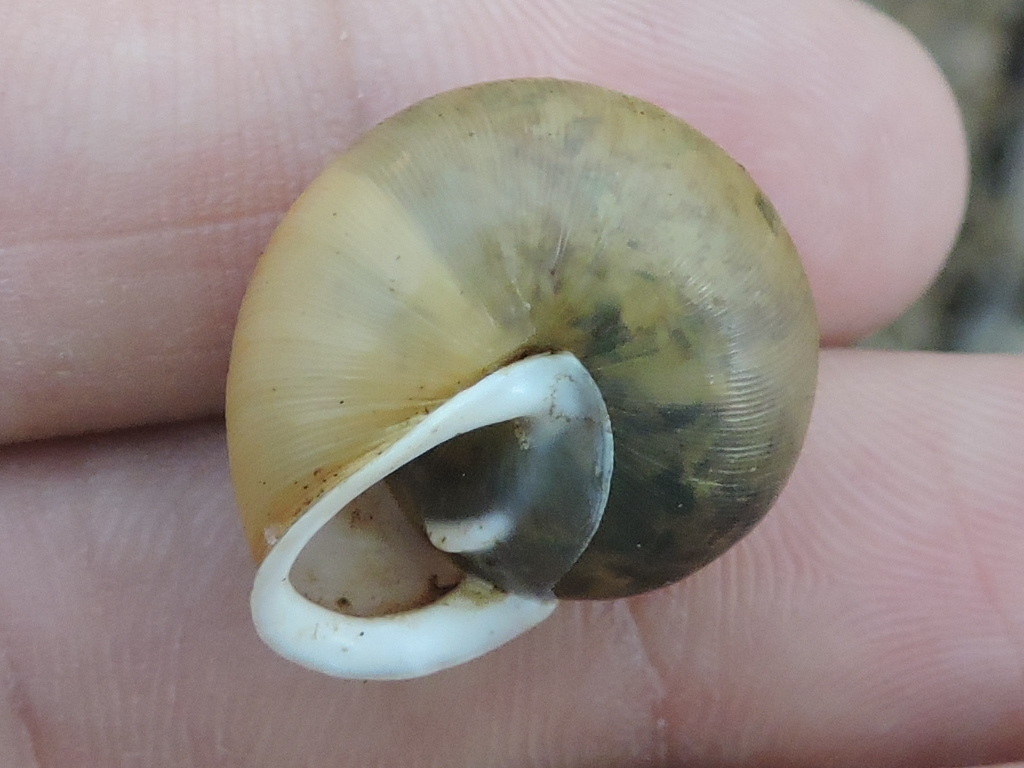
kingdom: Animalia
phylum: Mollusca
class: Gastropoda
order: Stylommatophora
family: Polygyridae
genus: Patera
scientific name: Patera roemeri
